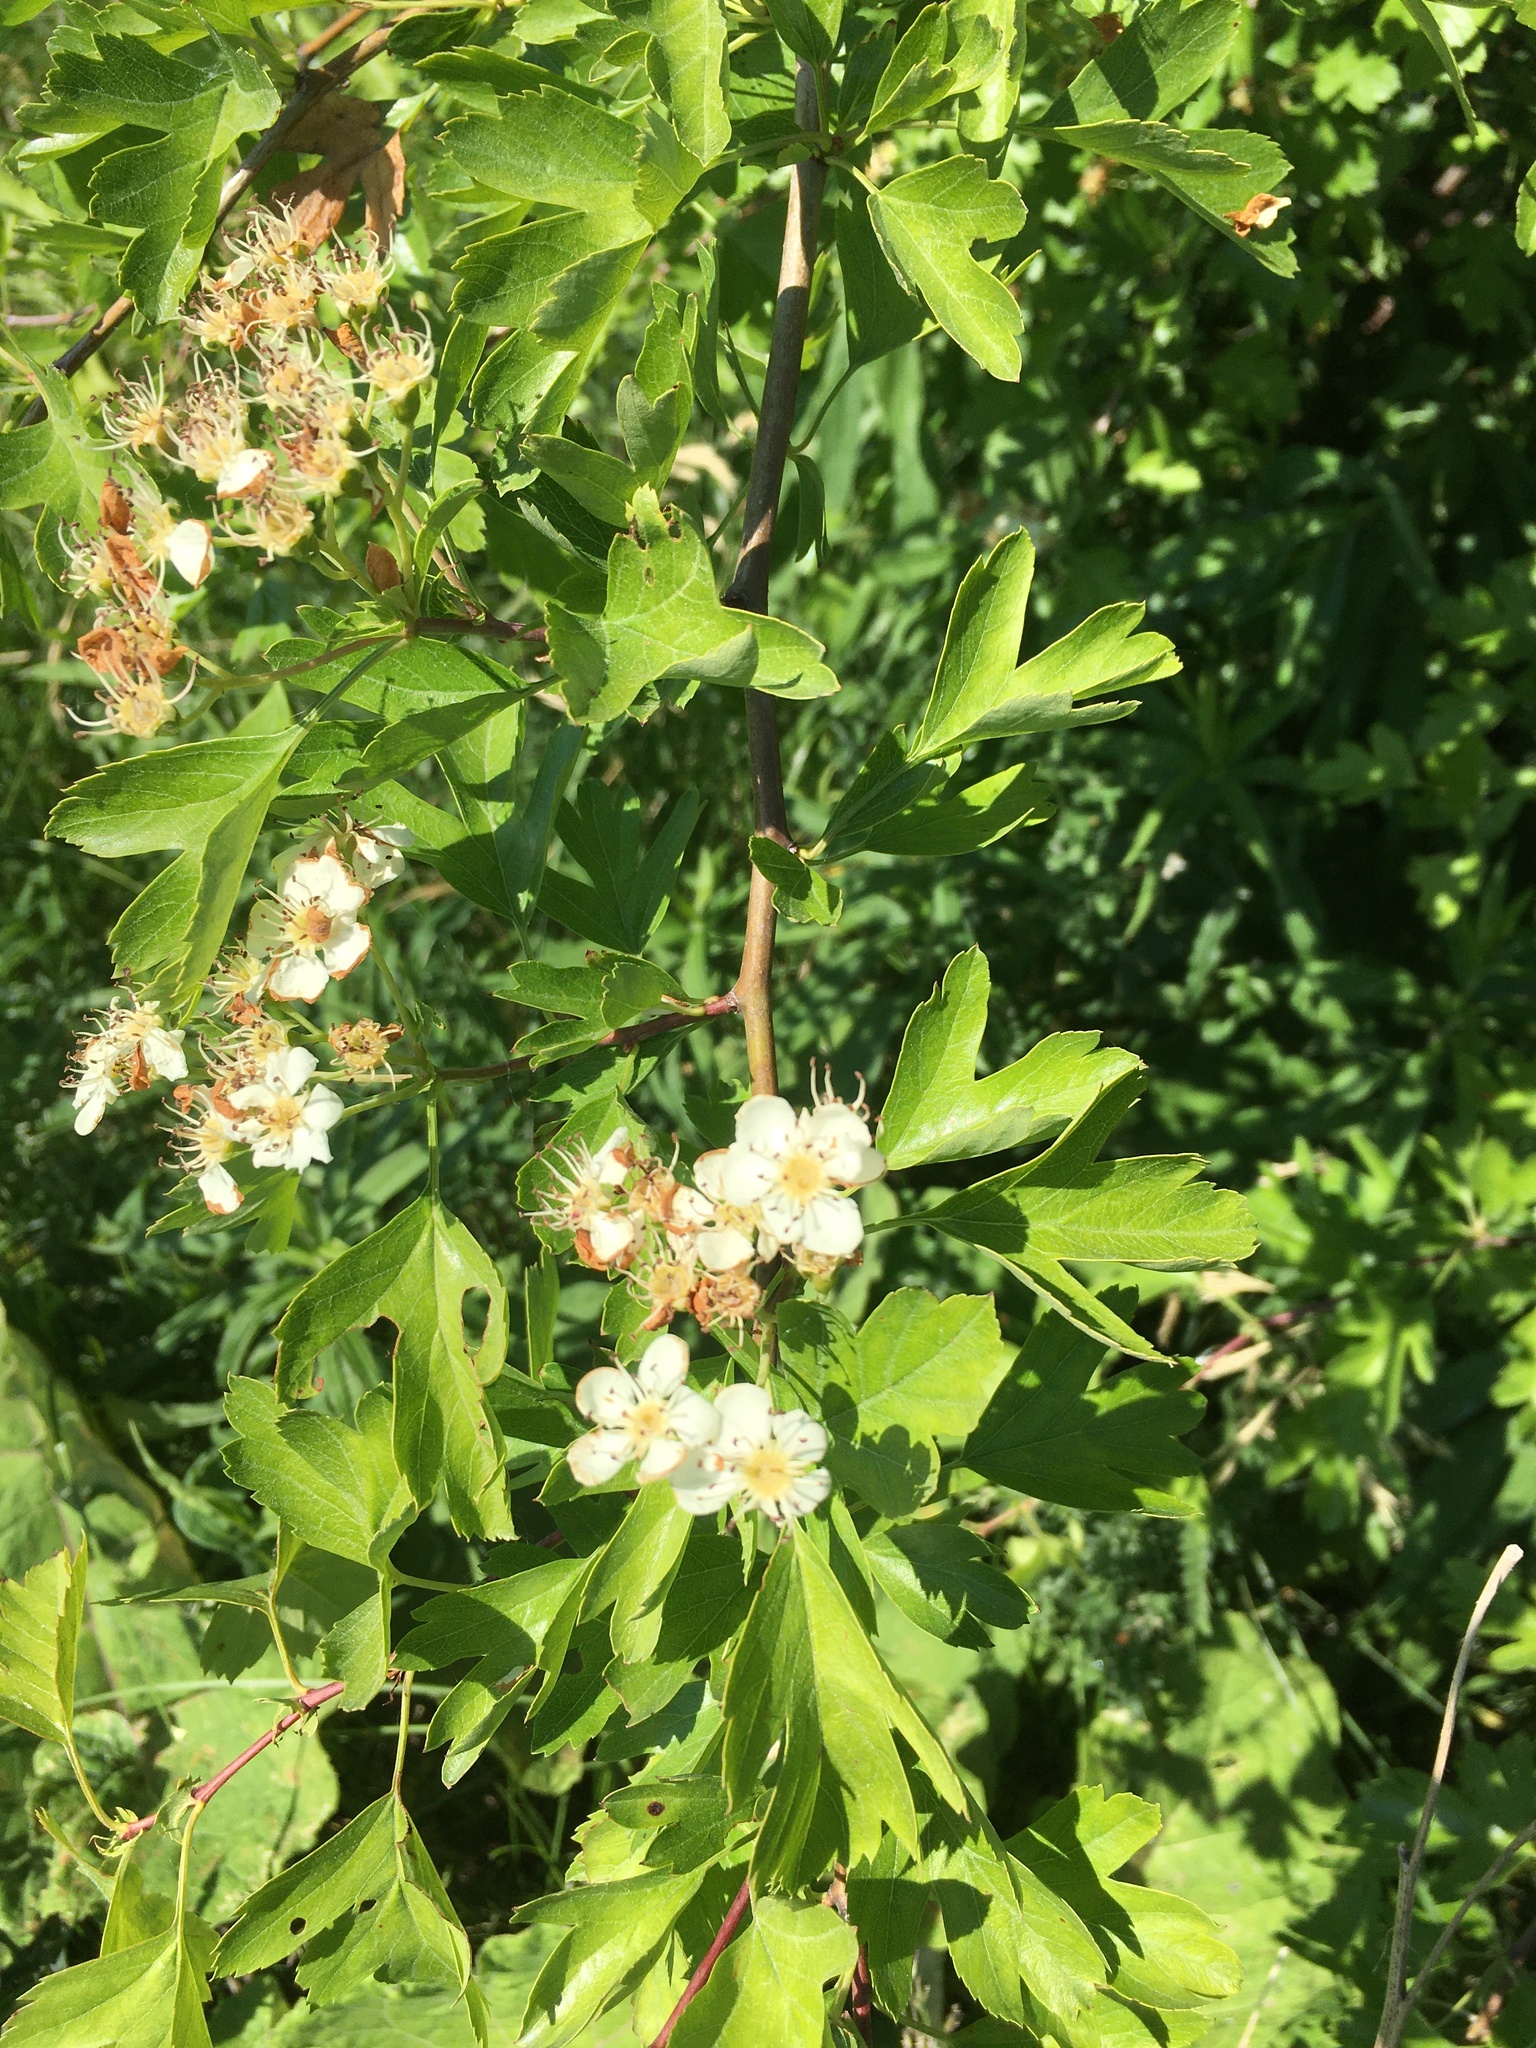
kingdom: Plantae
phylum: Tracheophyta
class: Magnoliopsida
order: Rosales
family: Rosaceae
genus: Crataegus
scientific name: Crataegus monogyna
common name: Hawthorn
